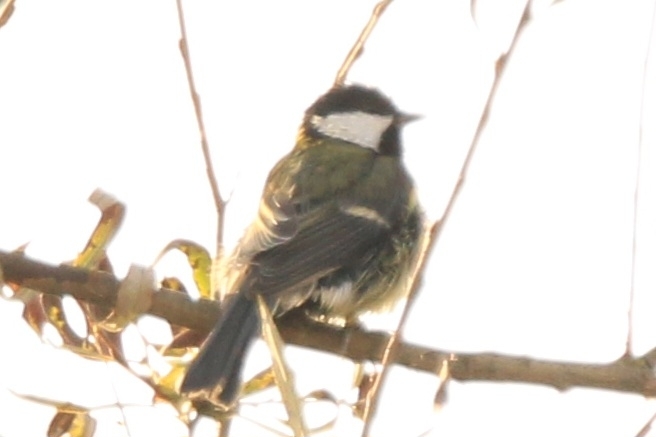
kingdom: Animalia
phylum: Chordata
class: Aves
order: Passeriformes
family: Paridae
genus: Parus
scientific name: Parus major
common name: Great tit
